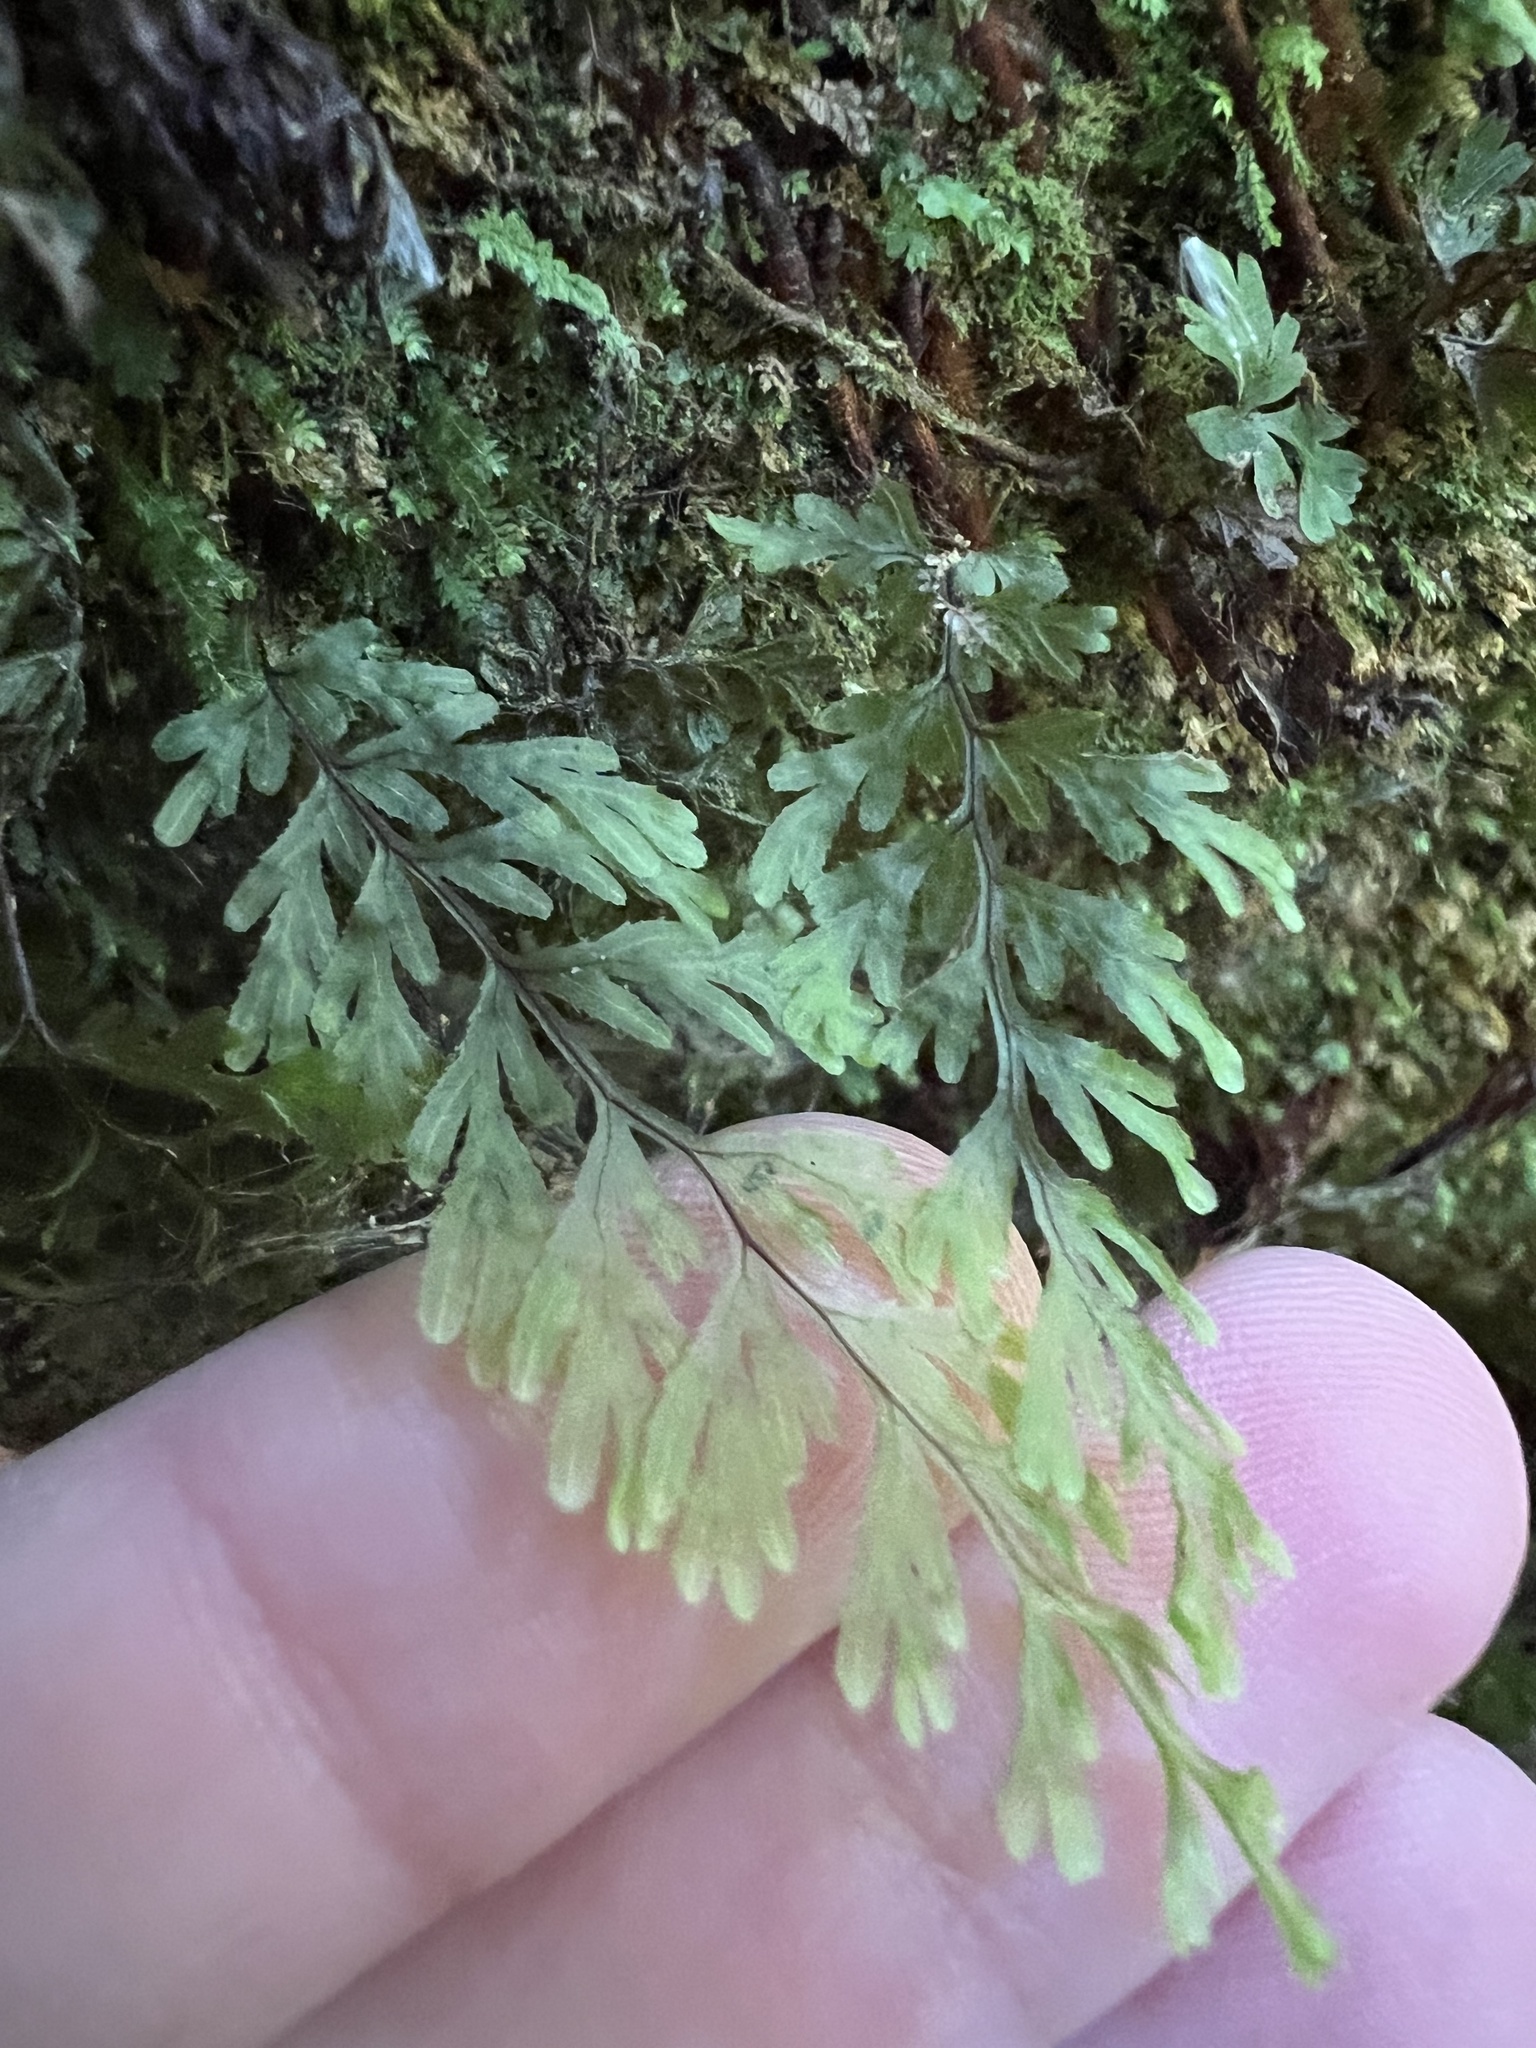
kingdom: Plantae
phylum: Tracheophyta
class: Polypodiopsida
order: Hymenophyllales
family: Hymenophyllaceae
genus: Hymenophyllum
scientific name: Hymenophyllum bivalve
